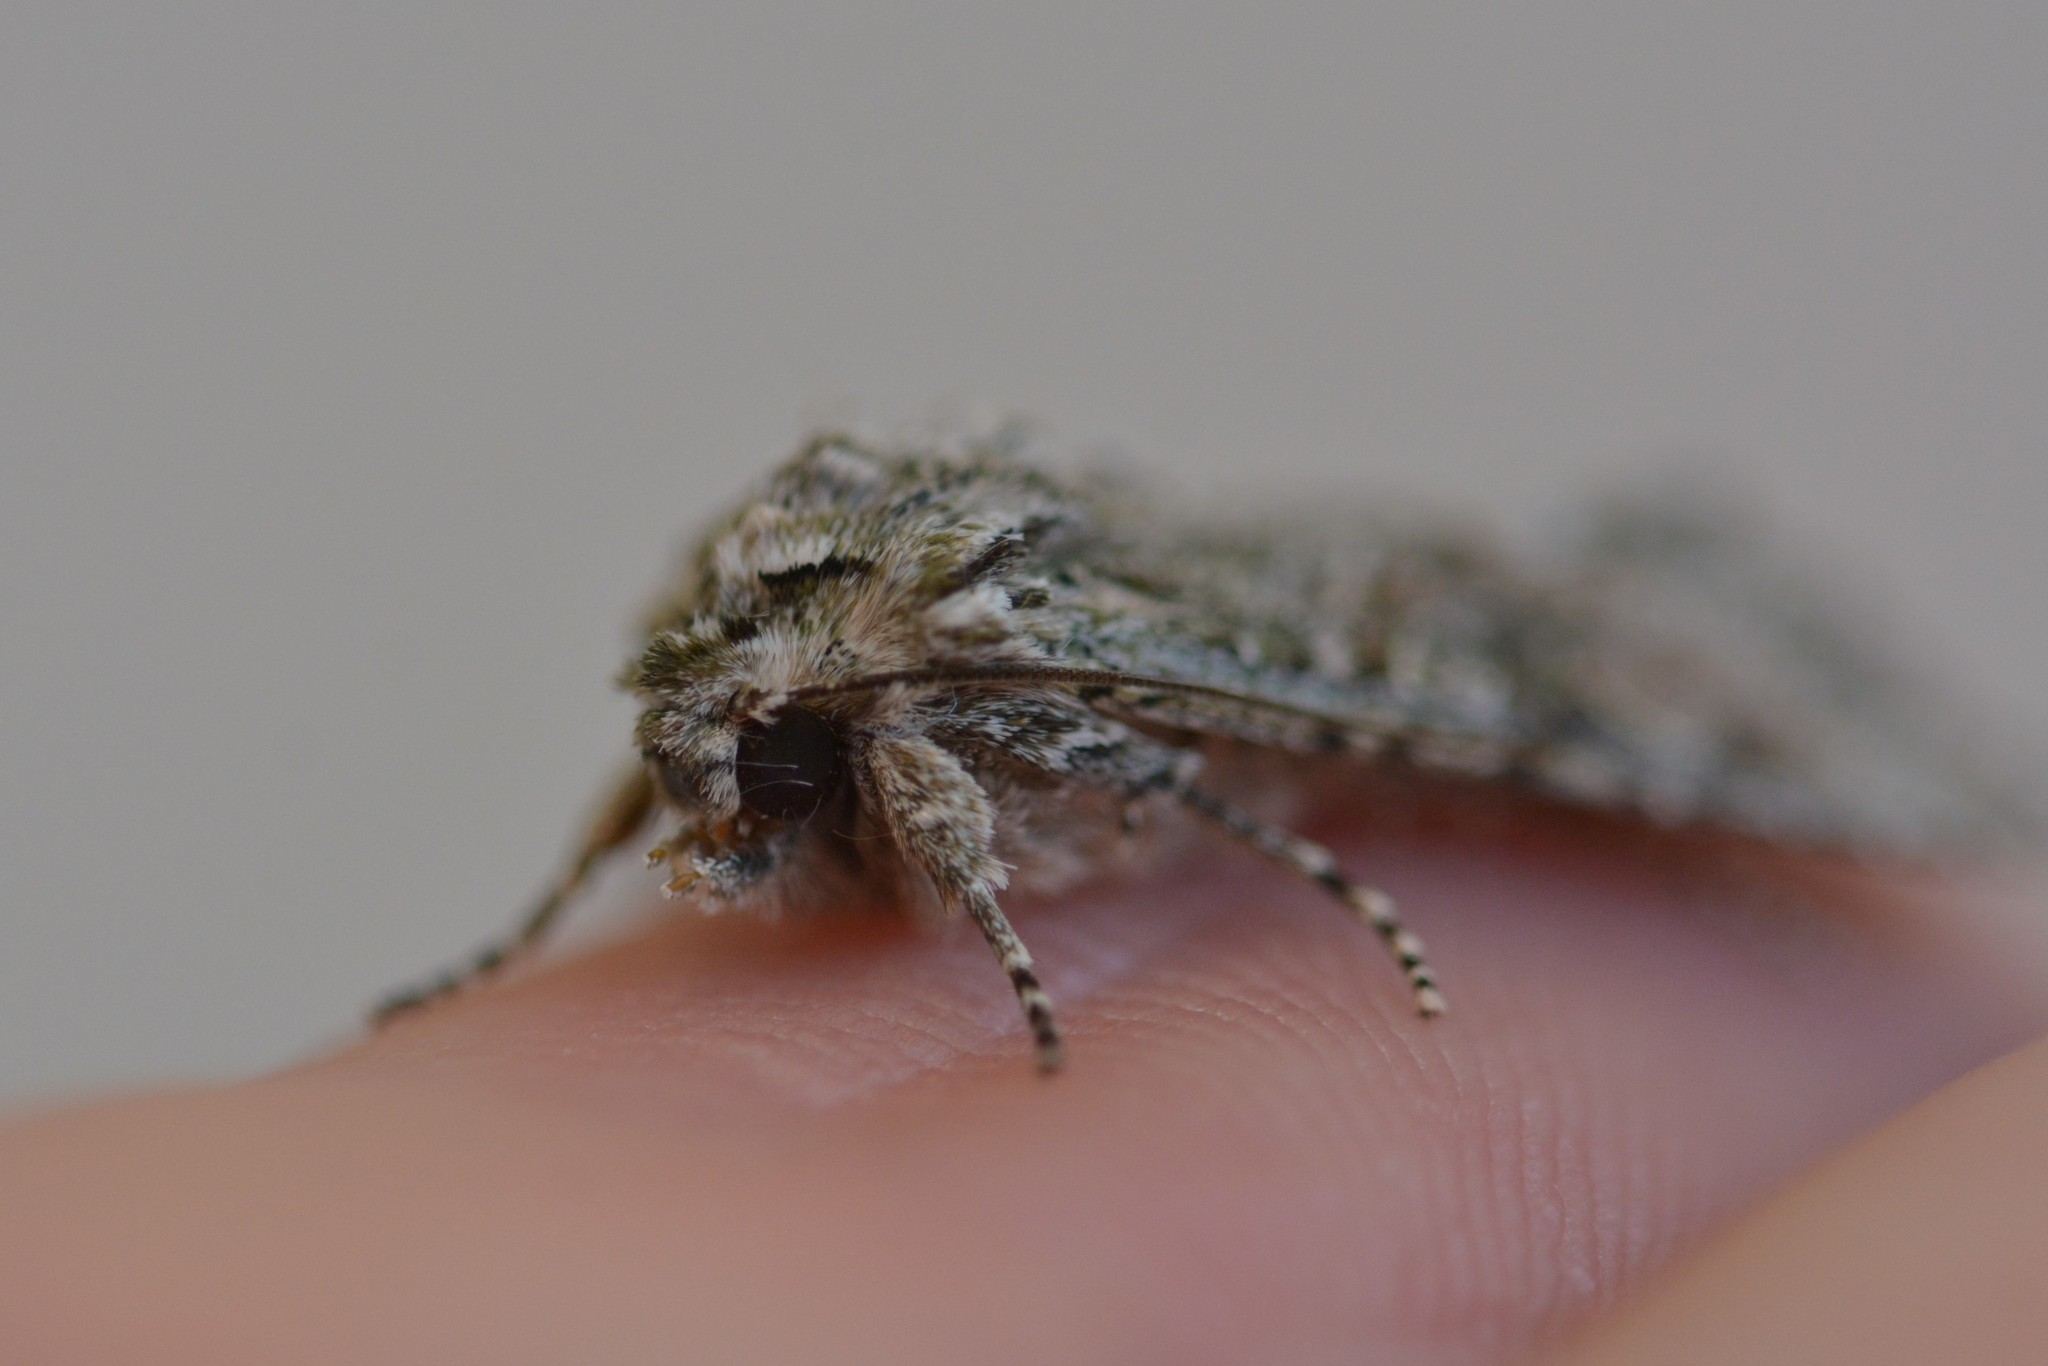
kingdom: Animalia
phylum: Arthropoda
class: Insecta
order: Lepidoptera
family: Noctuidae
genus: Ichneutica
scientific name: Ichneutica mutans
